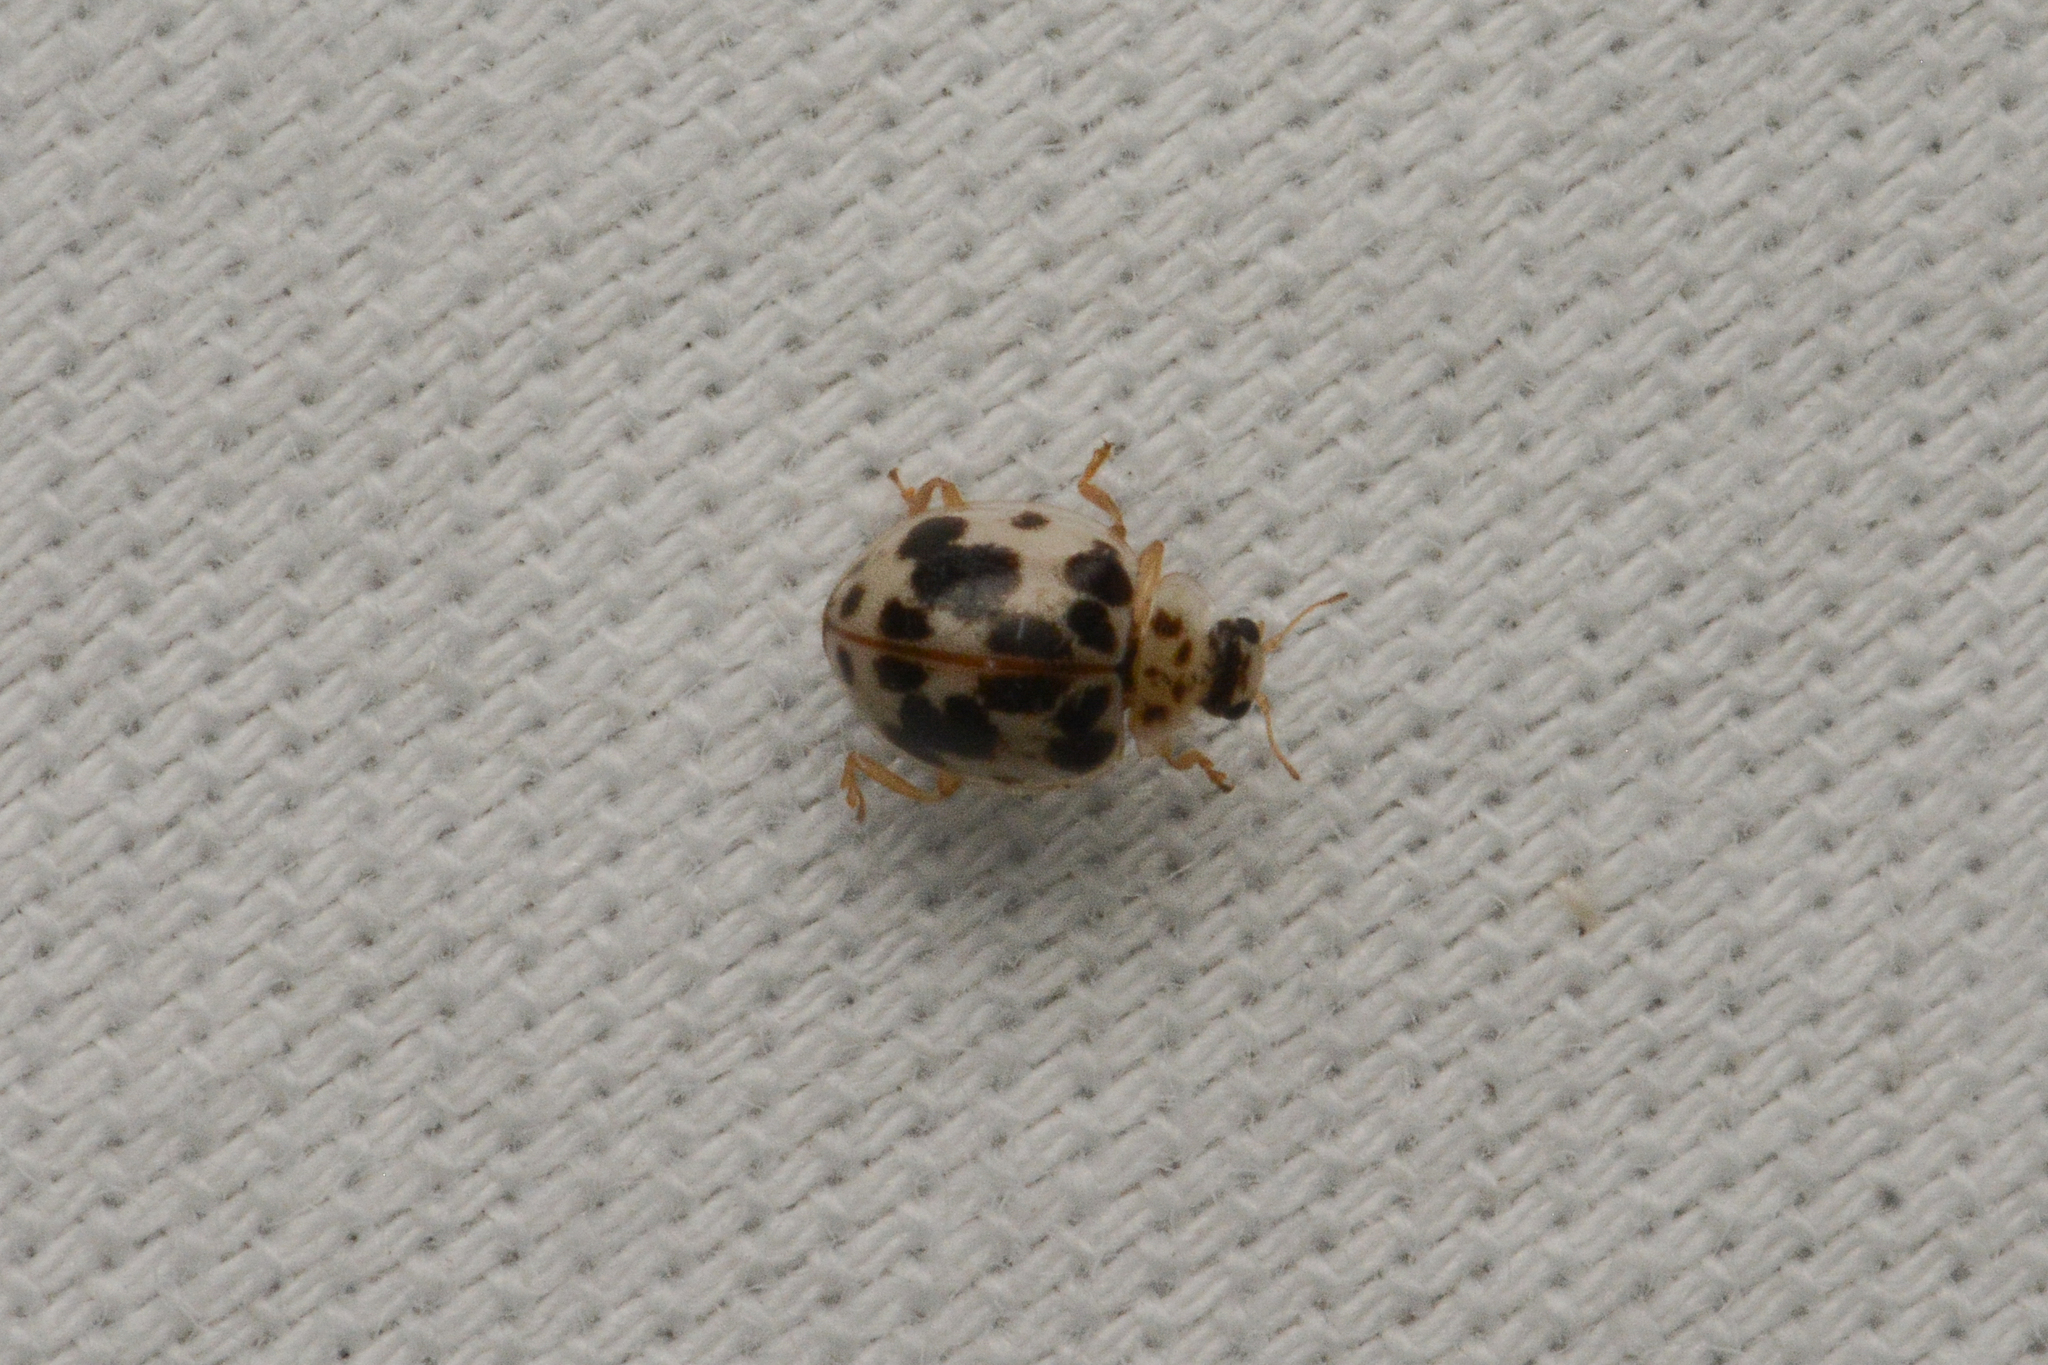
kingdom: Animalia
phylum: Arthropoda
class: Insecta
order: Coleoptera
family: Coccinellidae
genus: Psyllobora
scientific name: Psyllobora borealis
